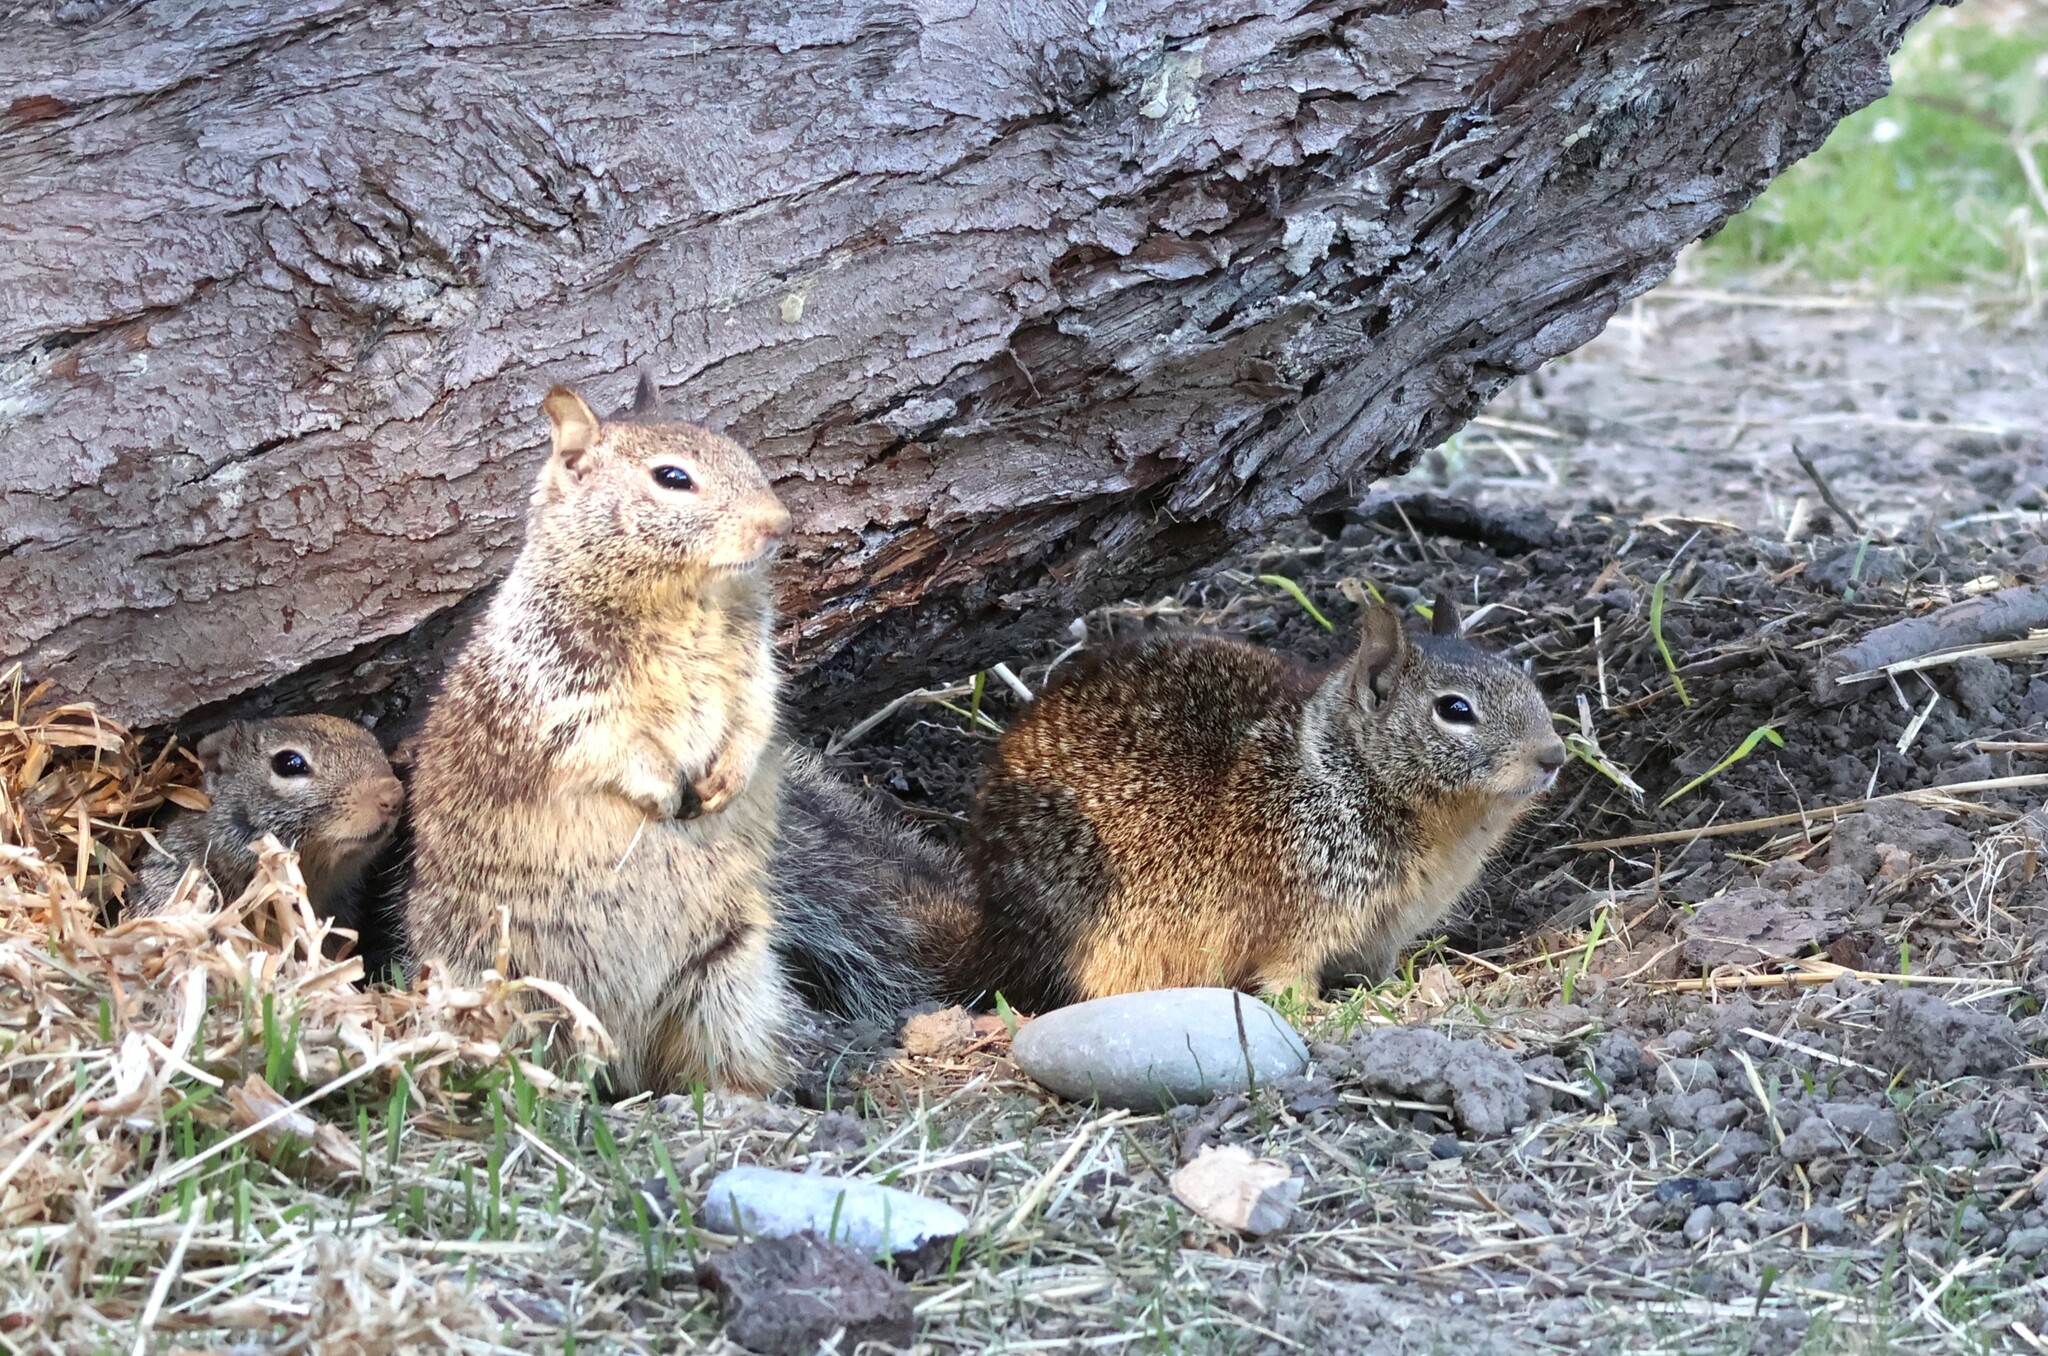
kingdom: Animalia
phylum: Chordata
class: Mammalia
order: Rodentia
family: Sciuridae
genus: Otospermophilus
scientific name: Otospermophilus beecheyi
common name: California ground squirrel
